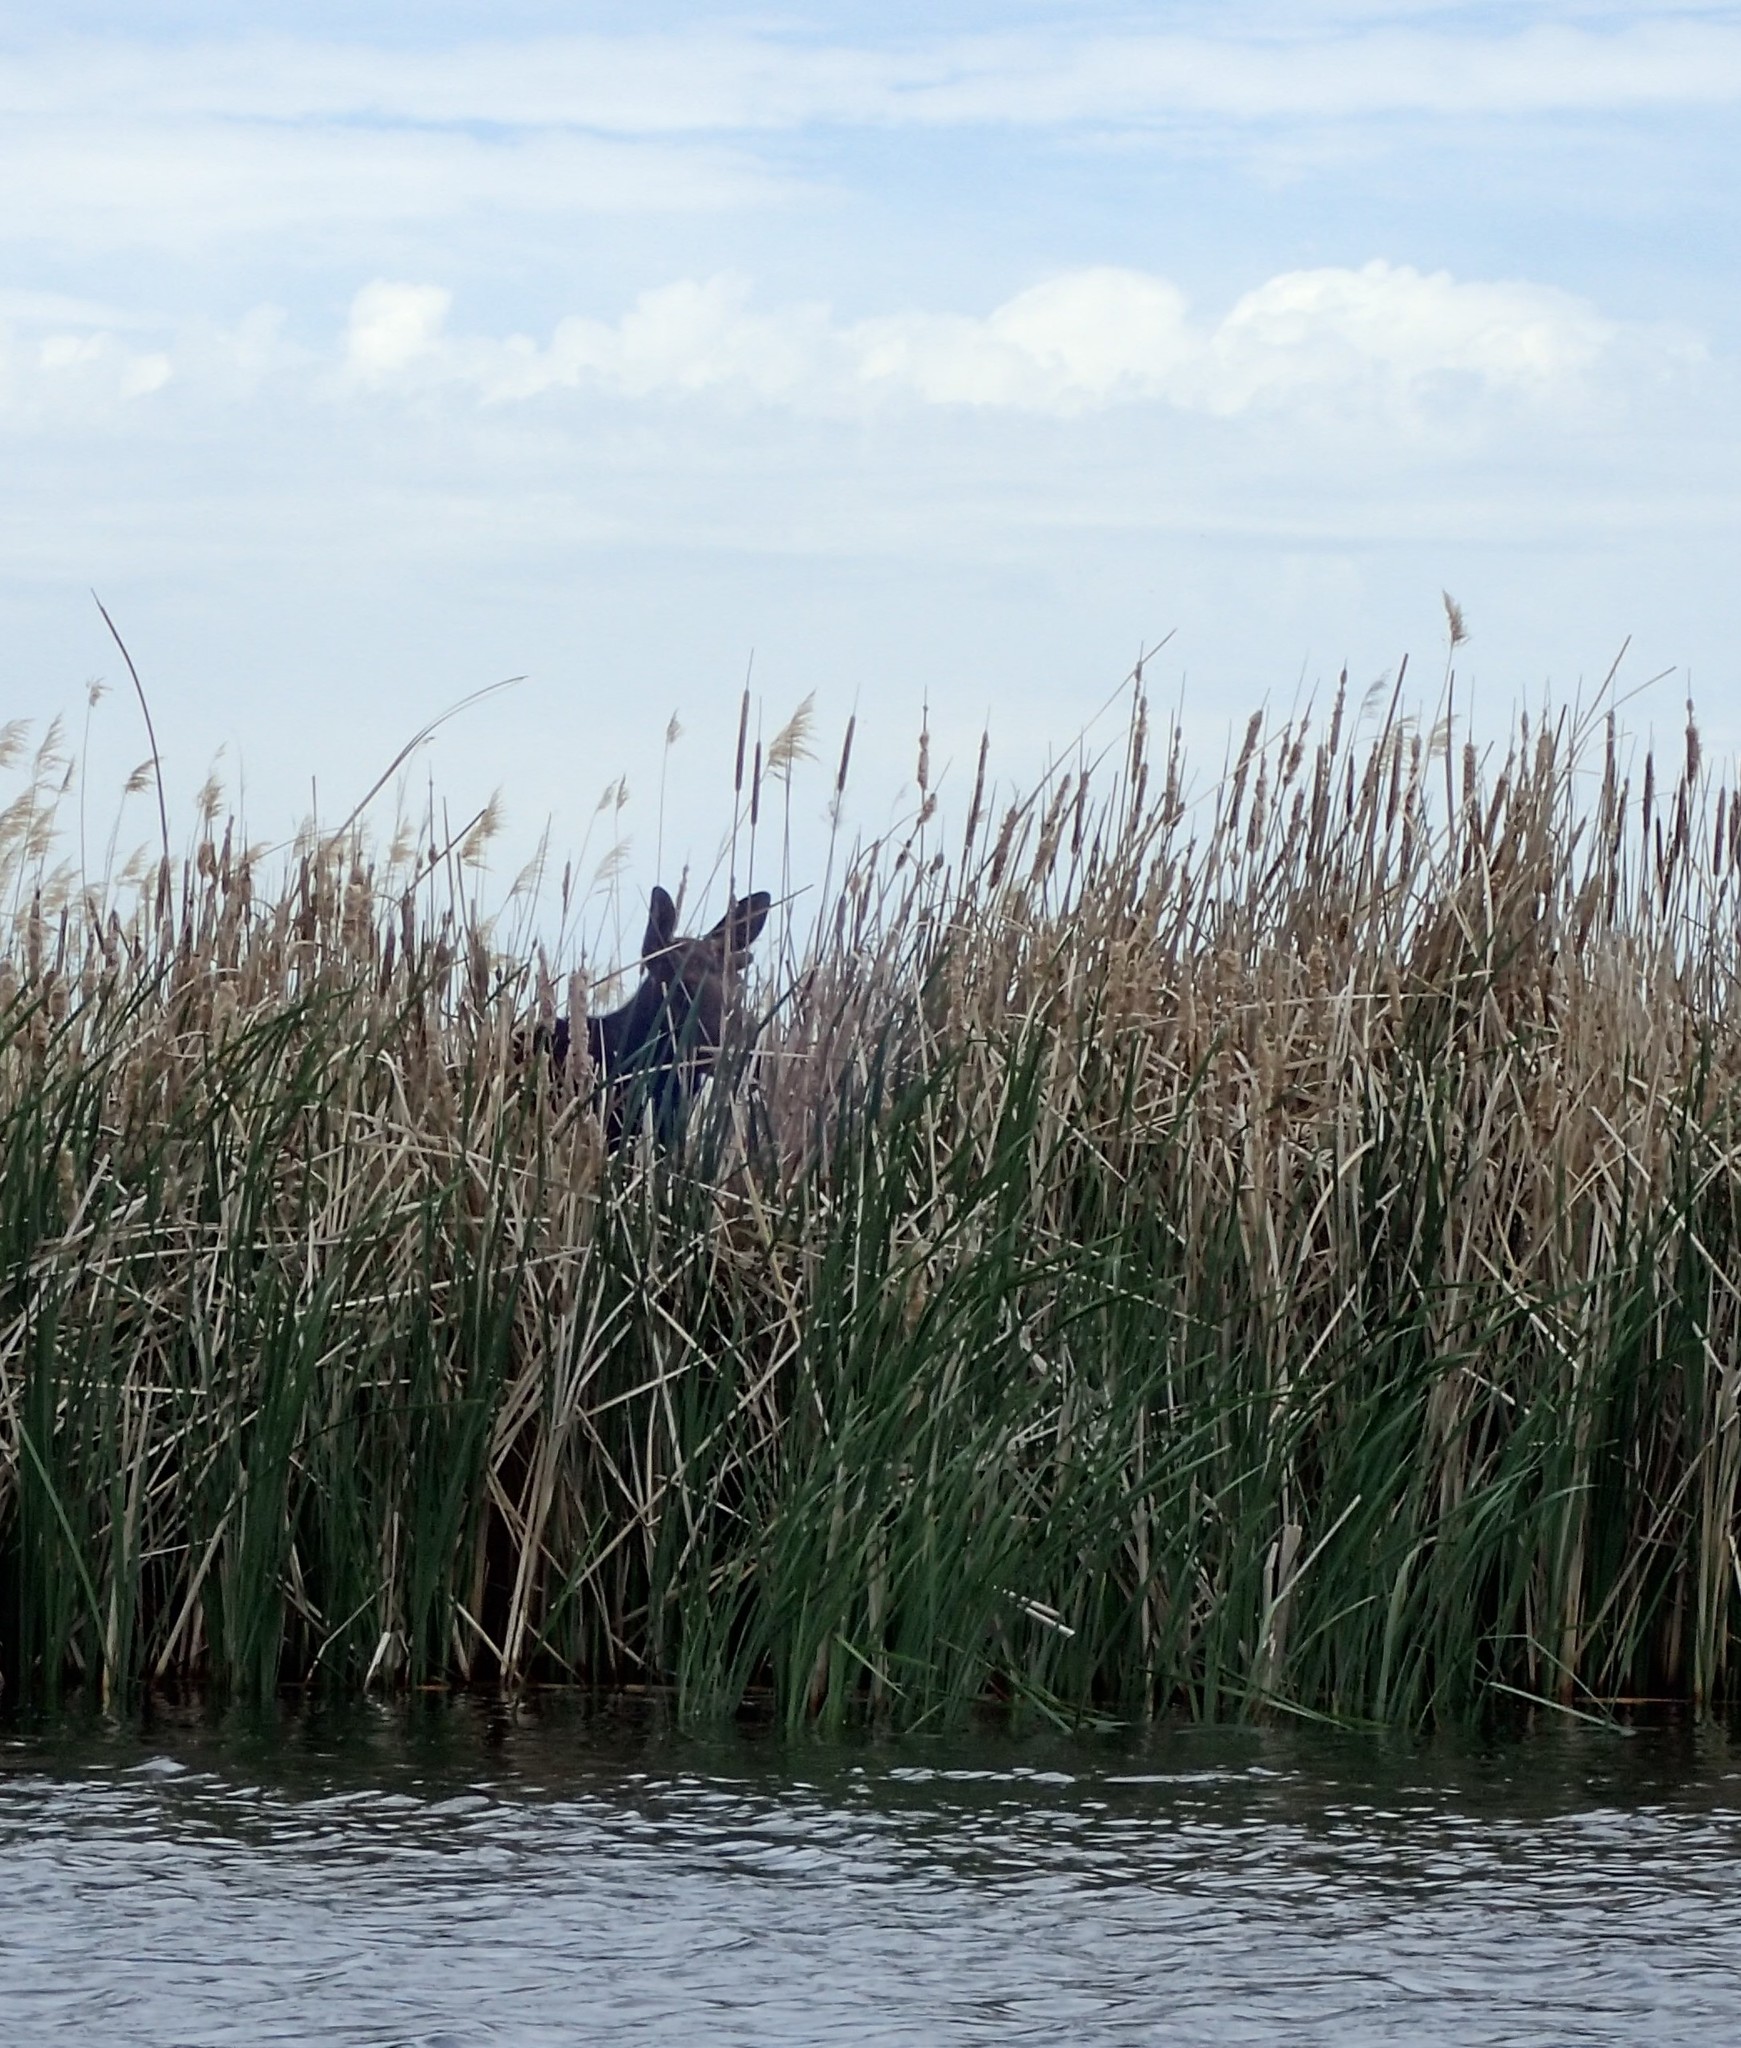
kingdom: Animalia
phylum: Chordata
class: Mammalia
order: Artiodactyla
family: Cervidae
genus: Alces
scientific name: Alces alces
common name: Moose
